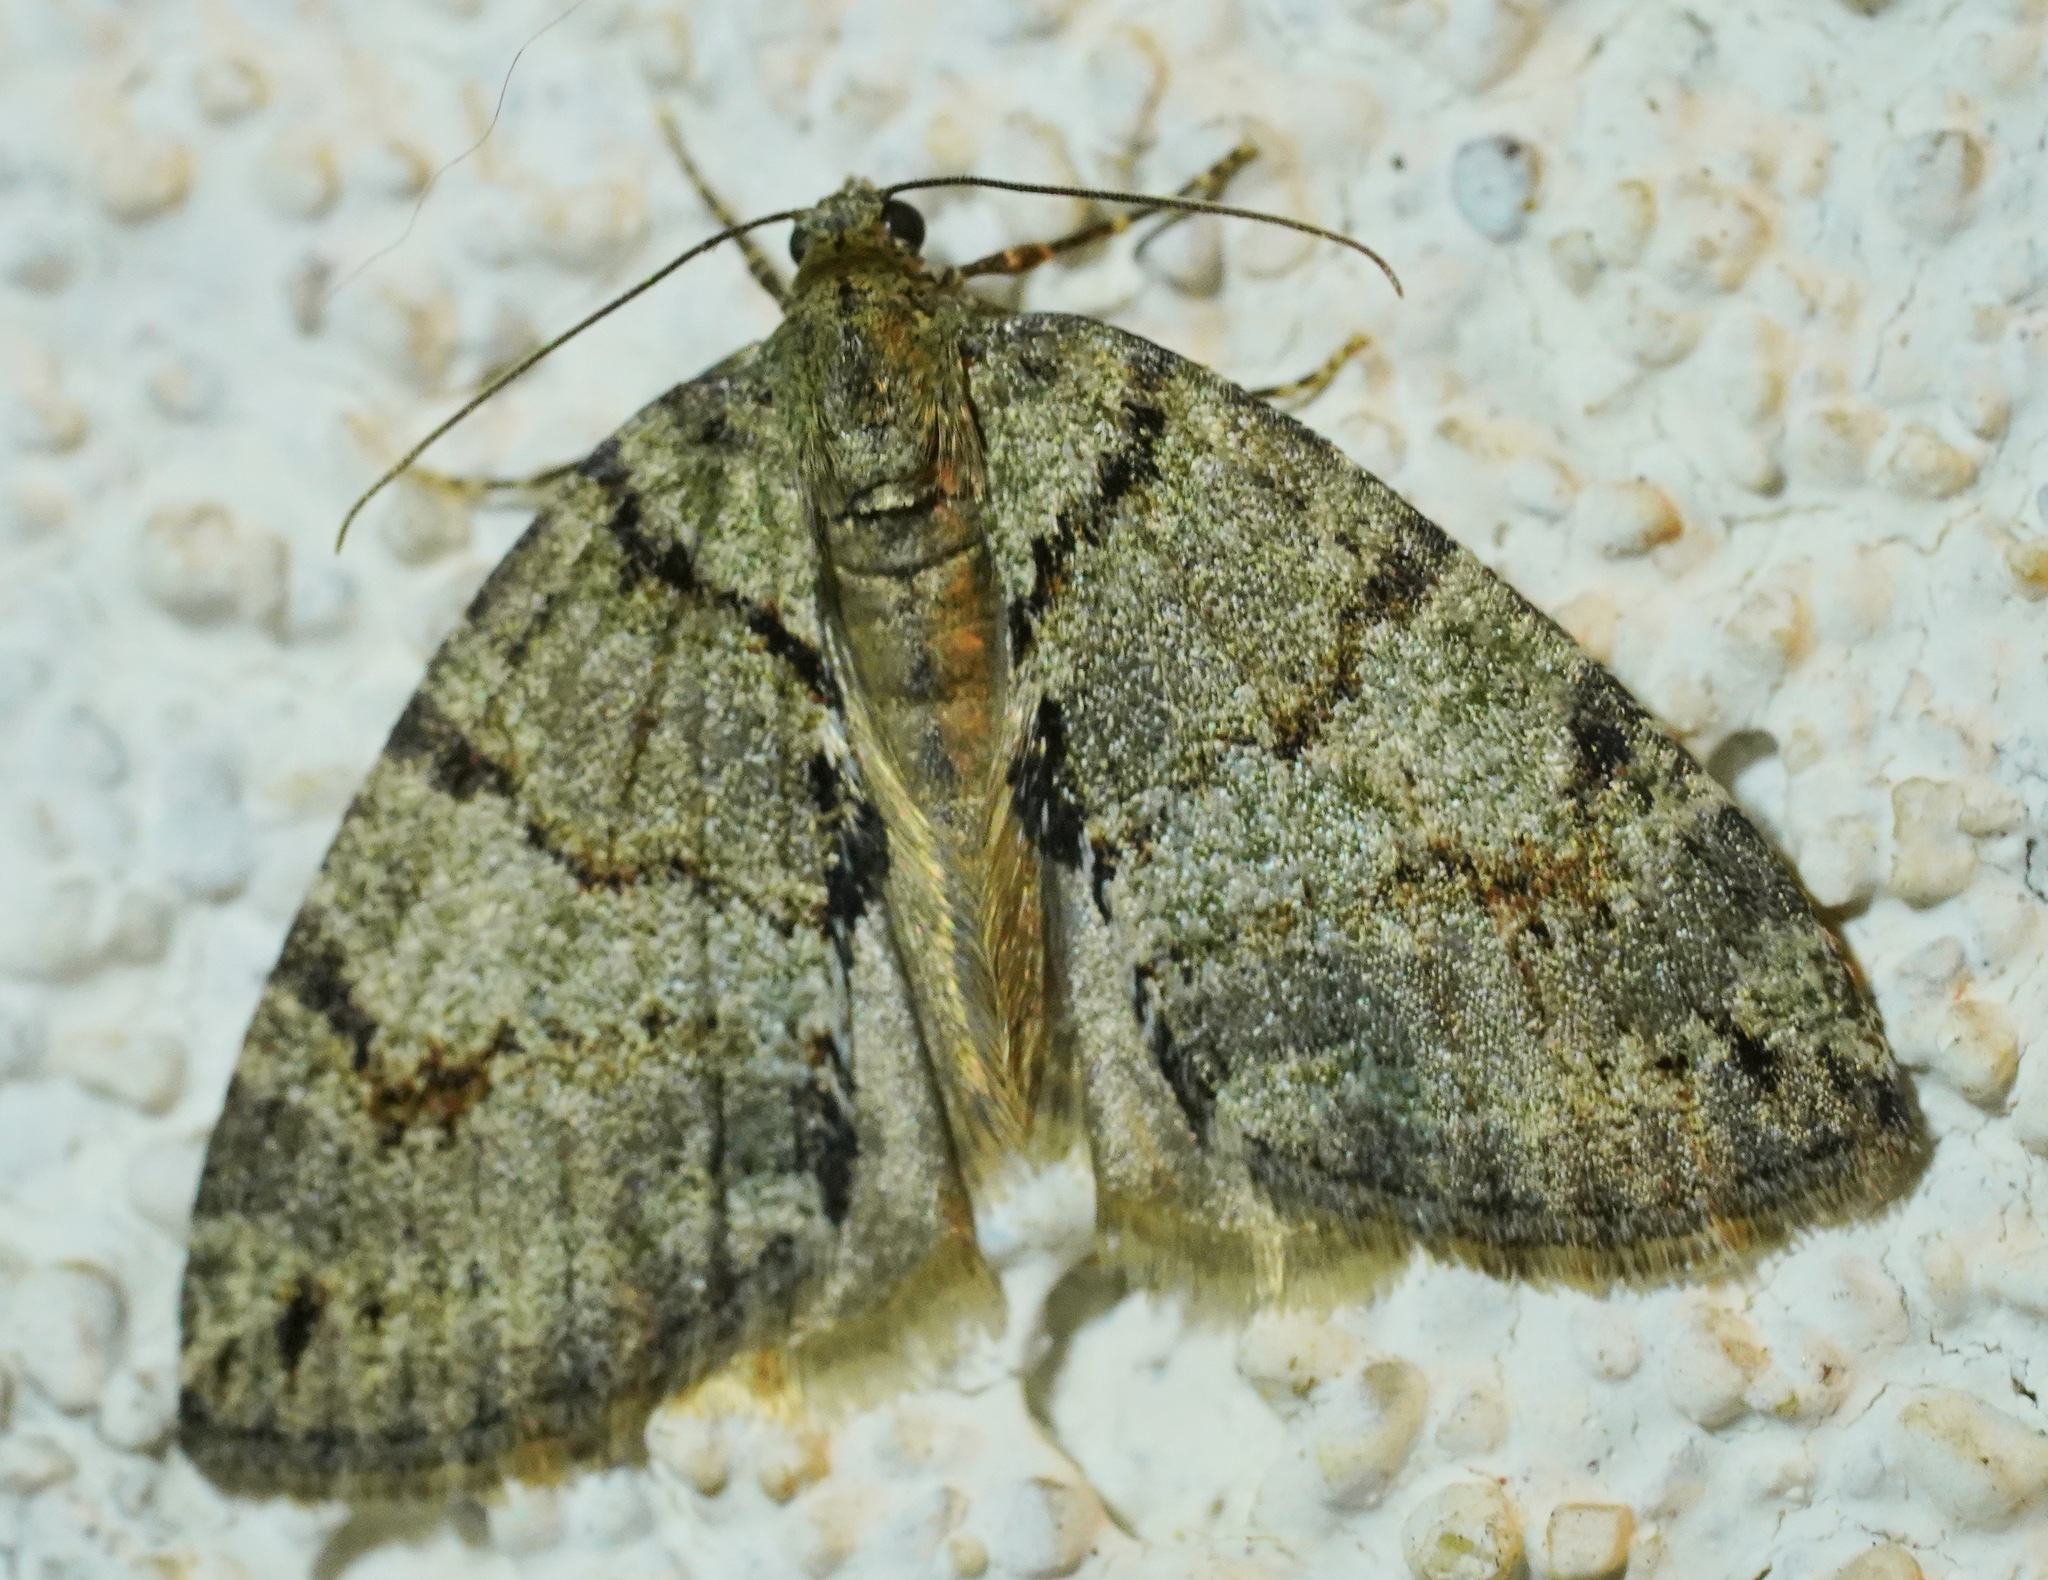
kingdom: Animalia
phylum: Arthropoda
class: Insecta
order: Lepidoptera
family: Geometridae
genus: Hydriomena
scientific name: Hydriomena nubilofasciata
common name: Oak winter highflier moth
